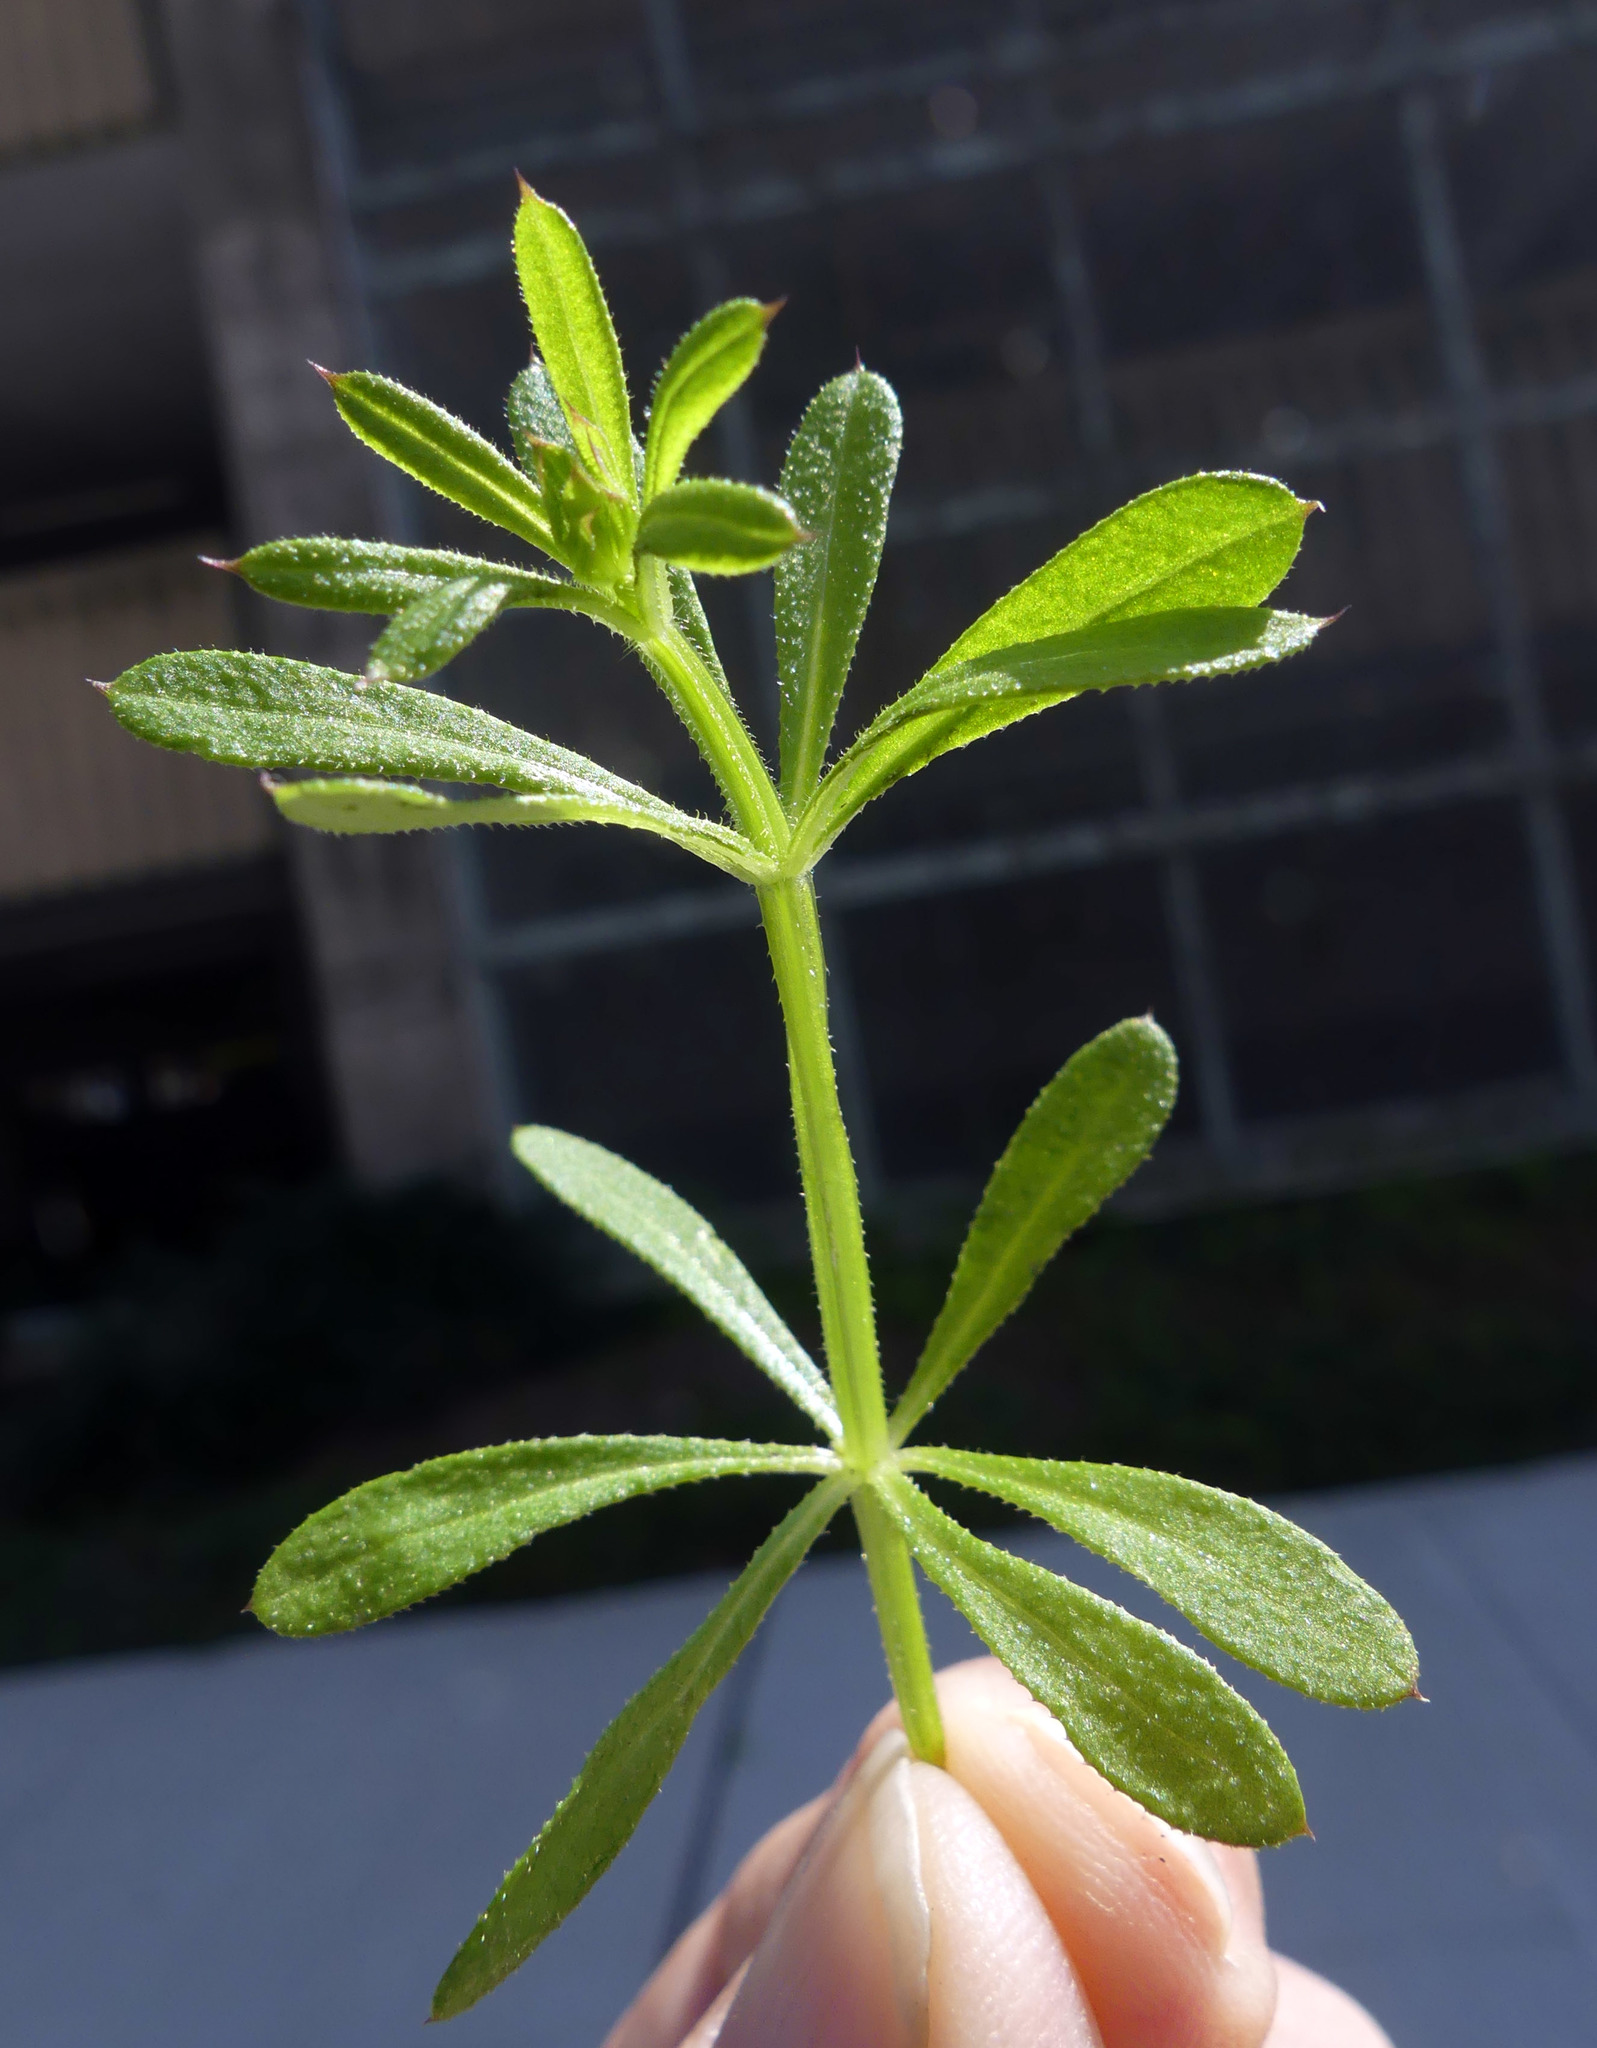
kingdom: Plantae
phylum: Tracheophyta
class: Magnoliopsida
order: Gentianales
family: Rubiaceae
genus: Galium
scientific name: Galium aparine
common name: Cleavers
